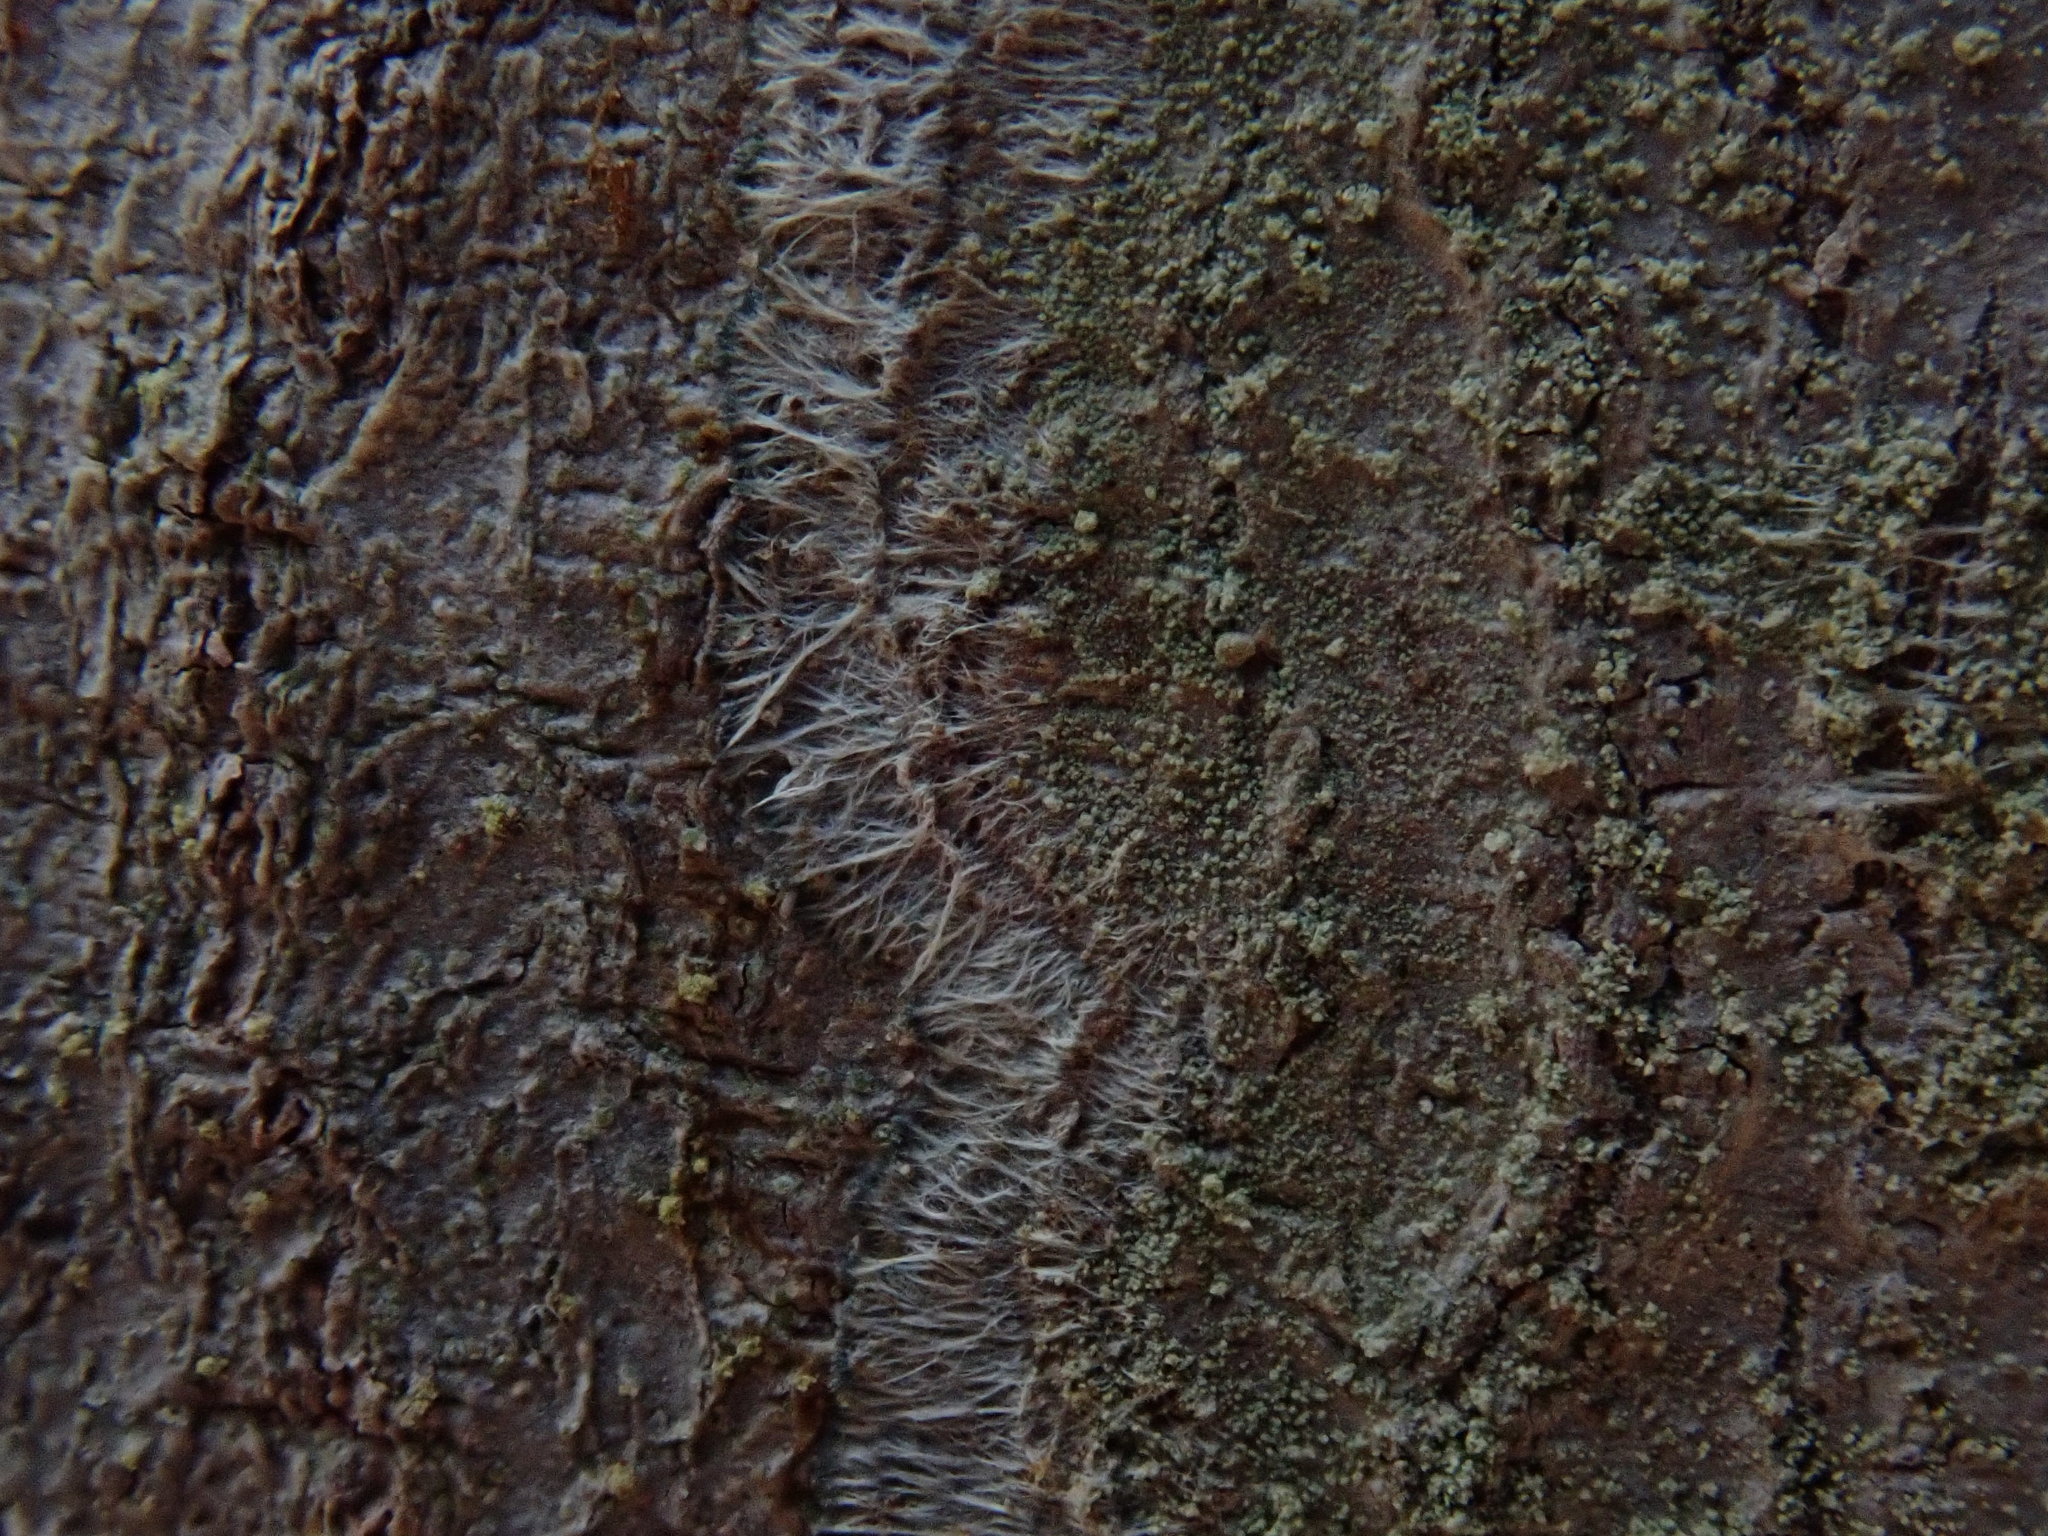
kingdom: Fungi
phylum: Ascomycota
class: Lecanoromycetes
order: Pertusariales
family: Pertusariaceae
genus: Verseghya
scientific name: Verseghya thysanophora
